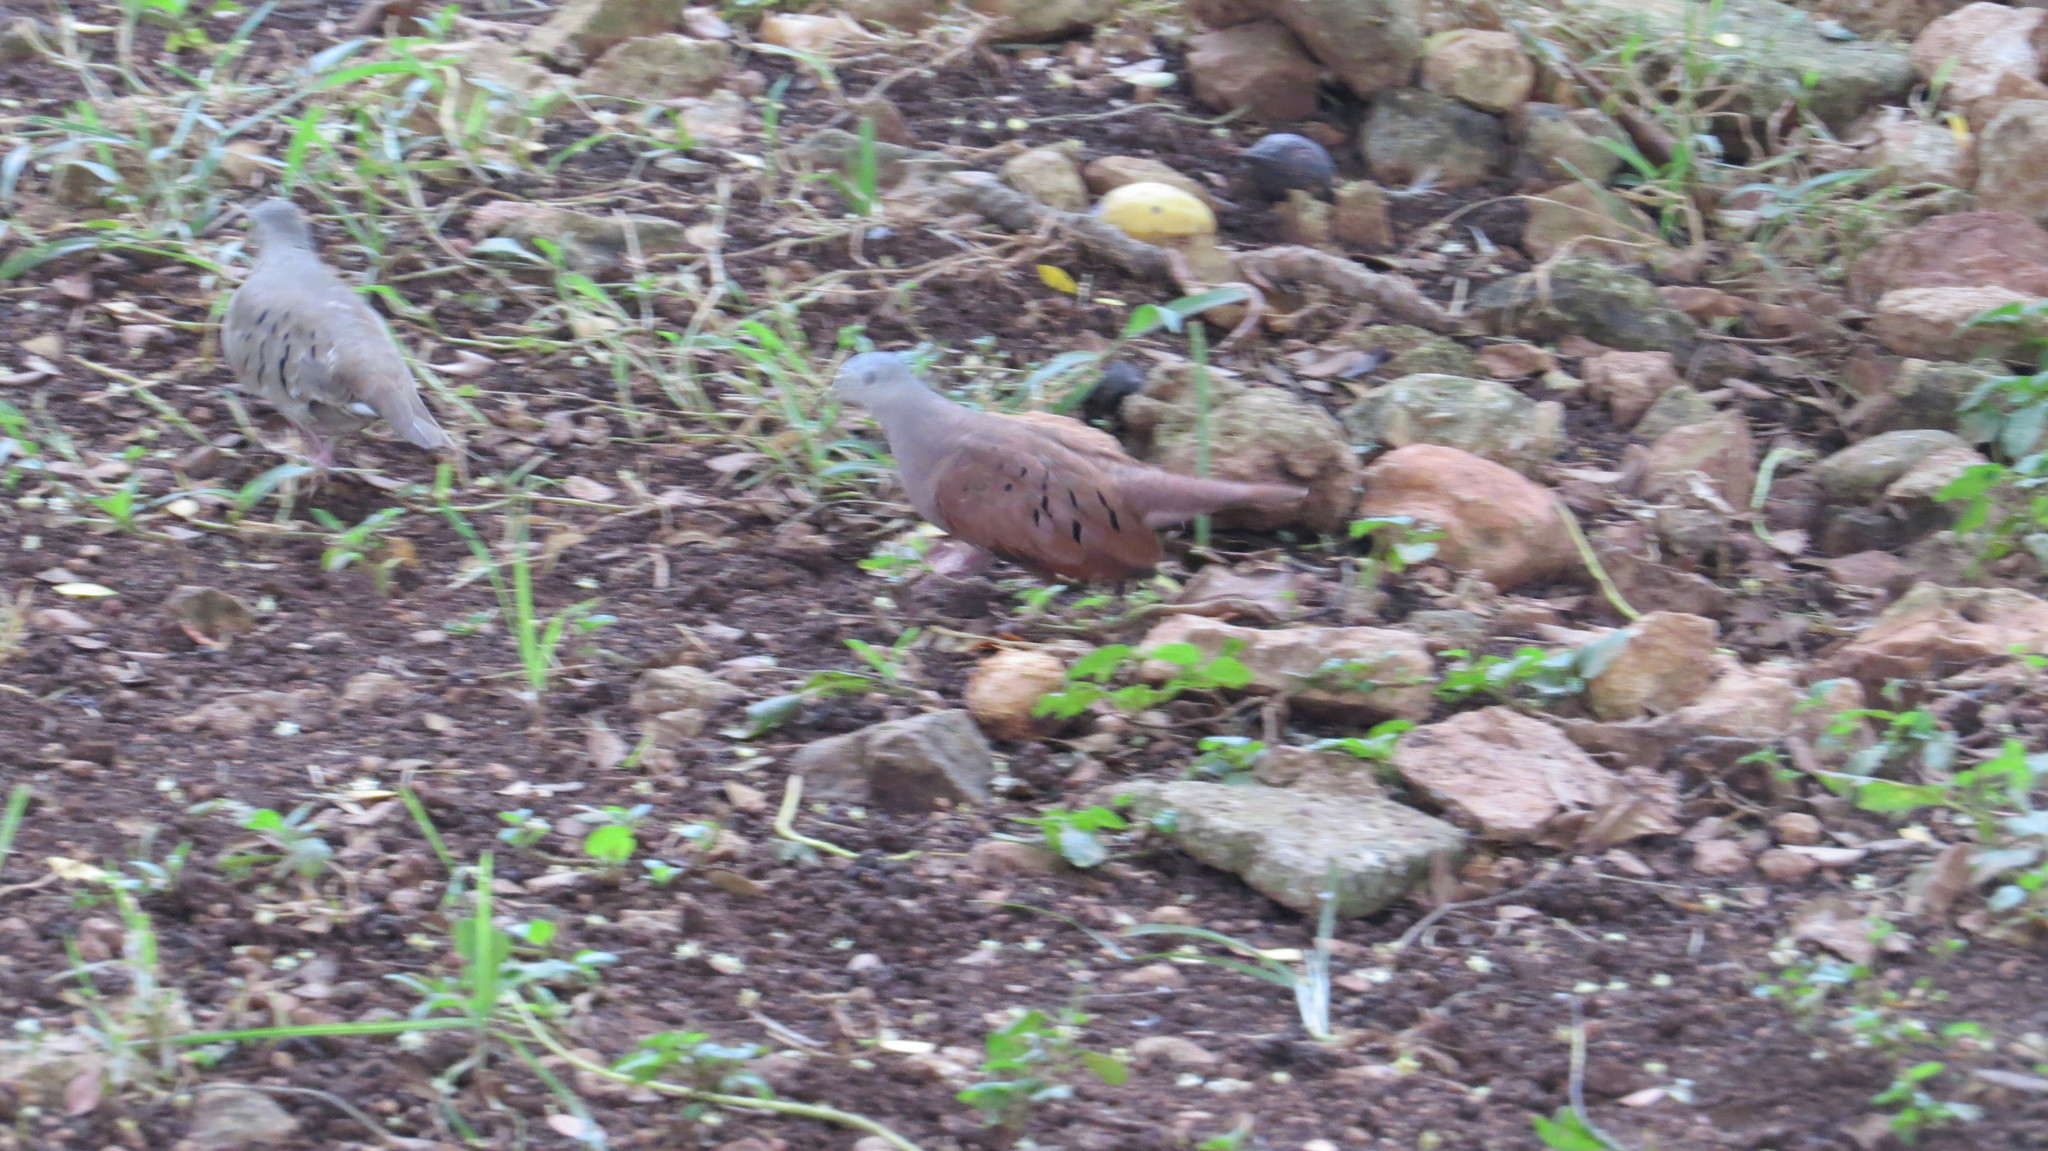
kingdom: Animalia
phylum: Chordata
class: Aves
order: Columbiformes
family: Columbidae
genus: Columbina
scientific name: Columbina talpacoti
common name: Ruddy ground dove
